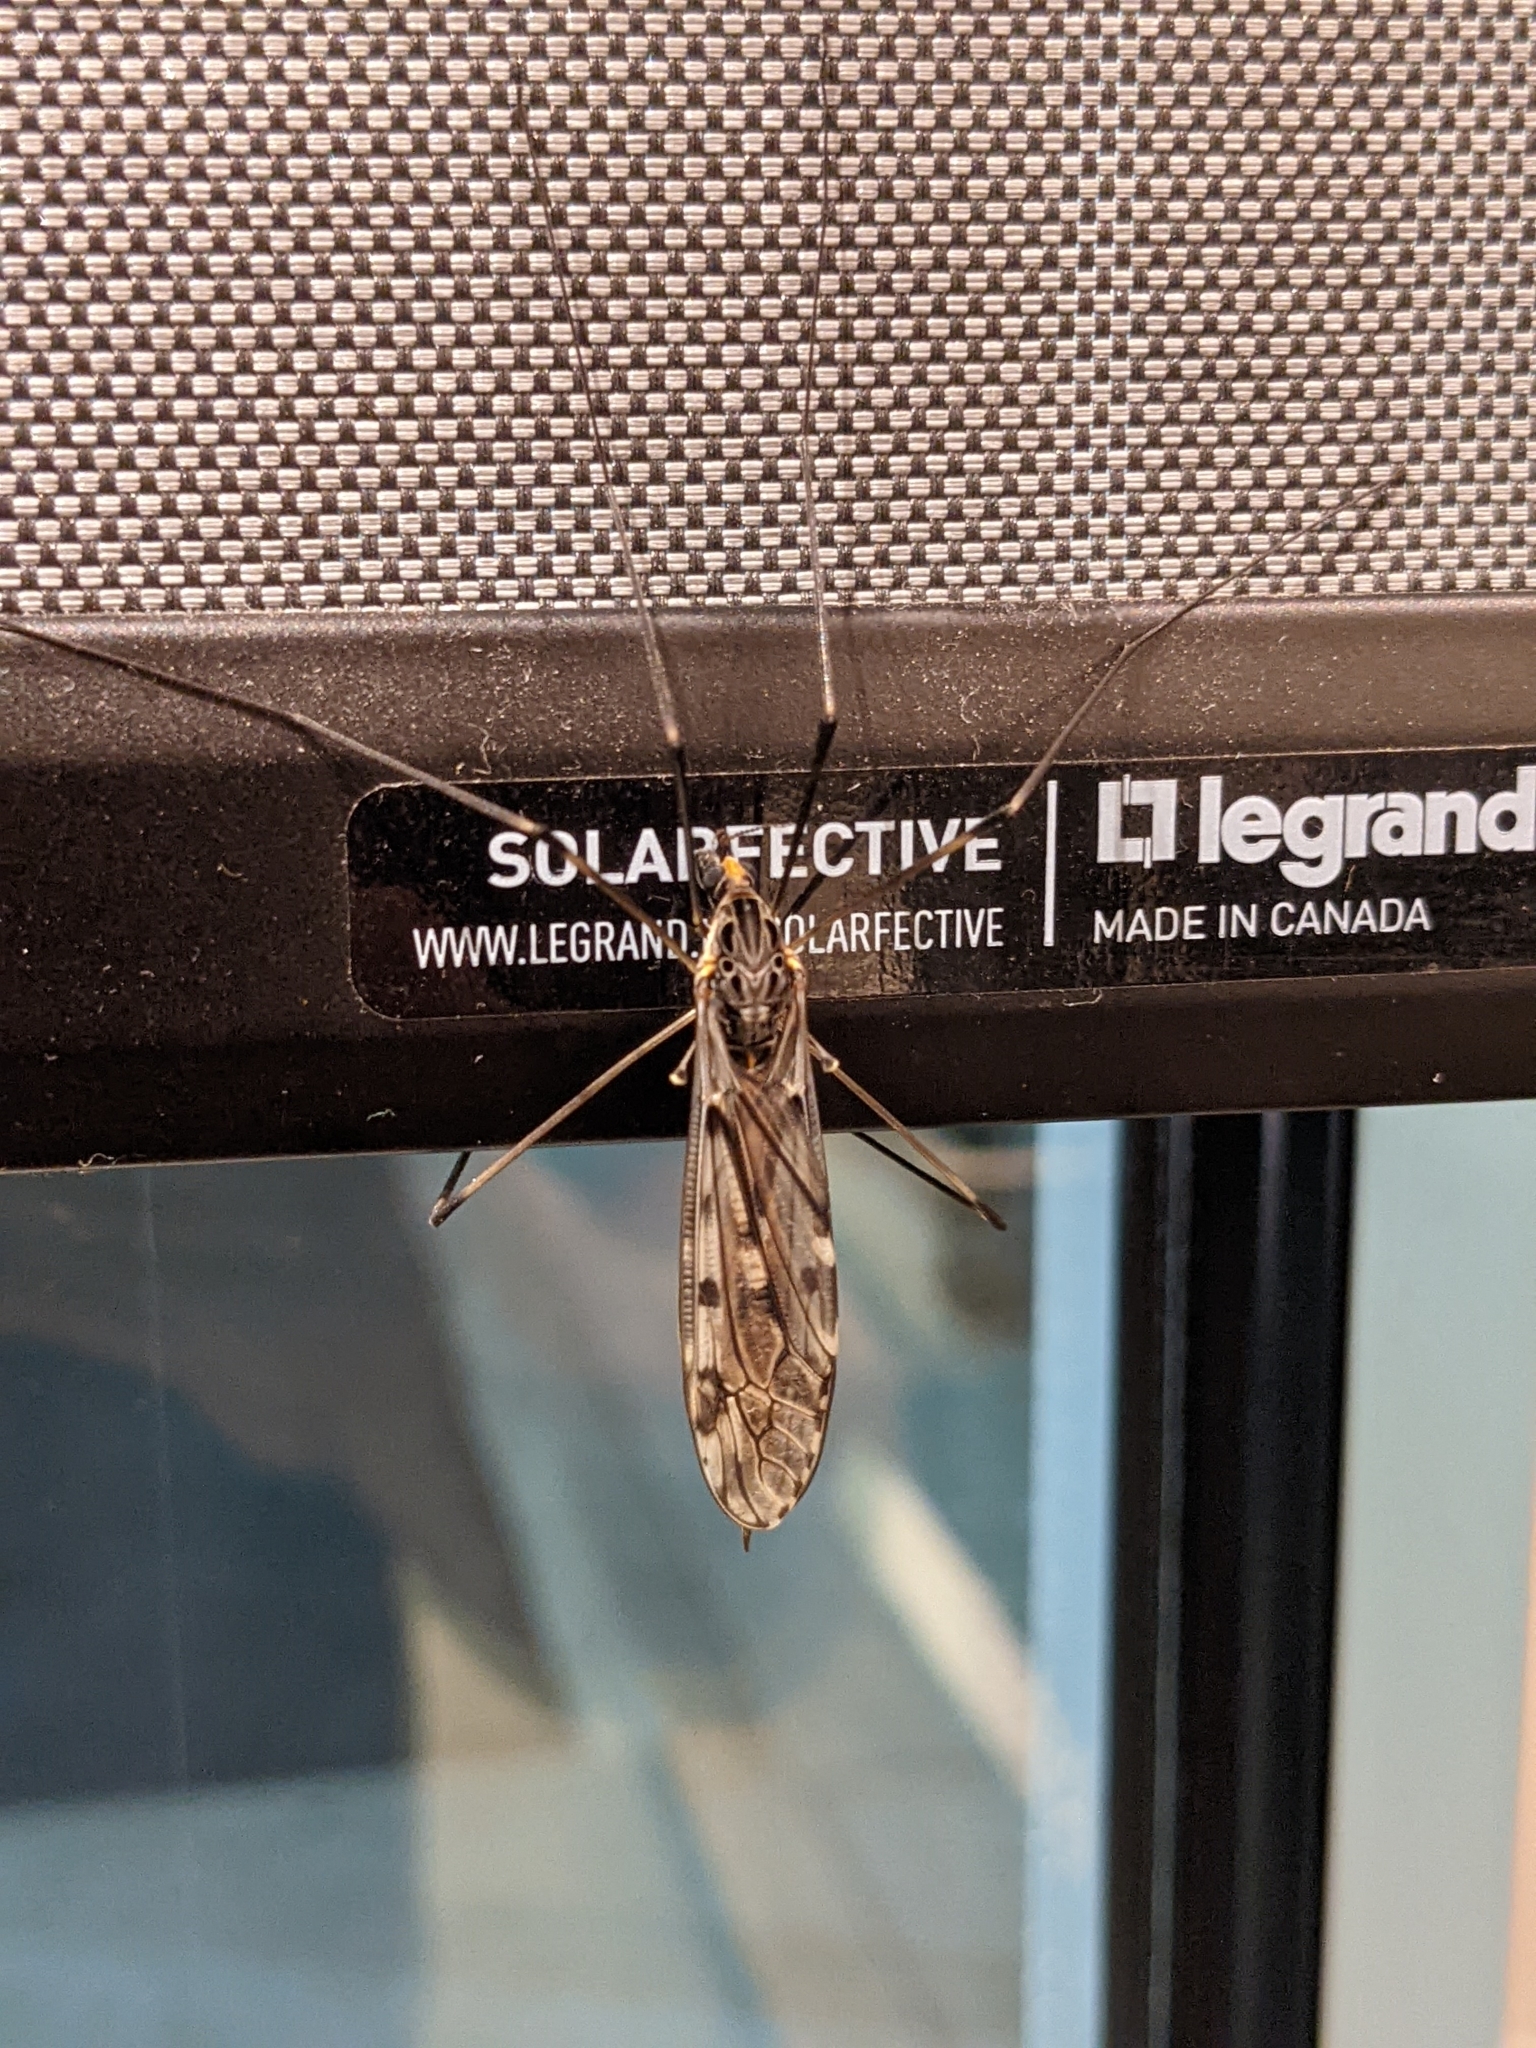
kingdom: Animalia
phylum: Arthropoda
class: Insecta
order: Diptera
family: Tipulidae
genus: Tipula
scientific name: Tipula abdominalis
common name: Giant crane fly
